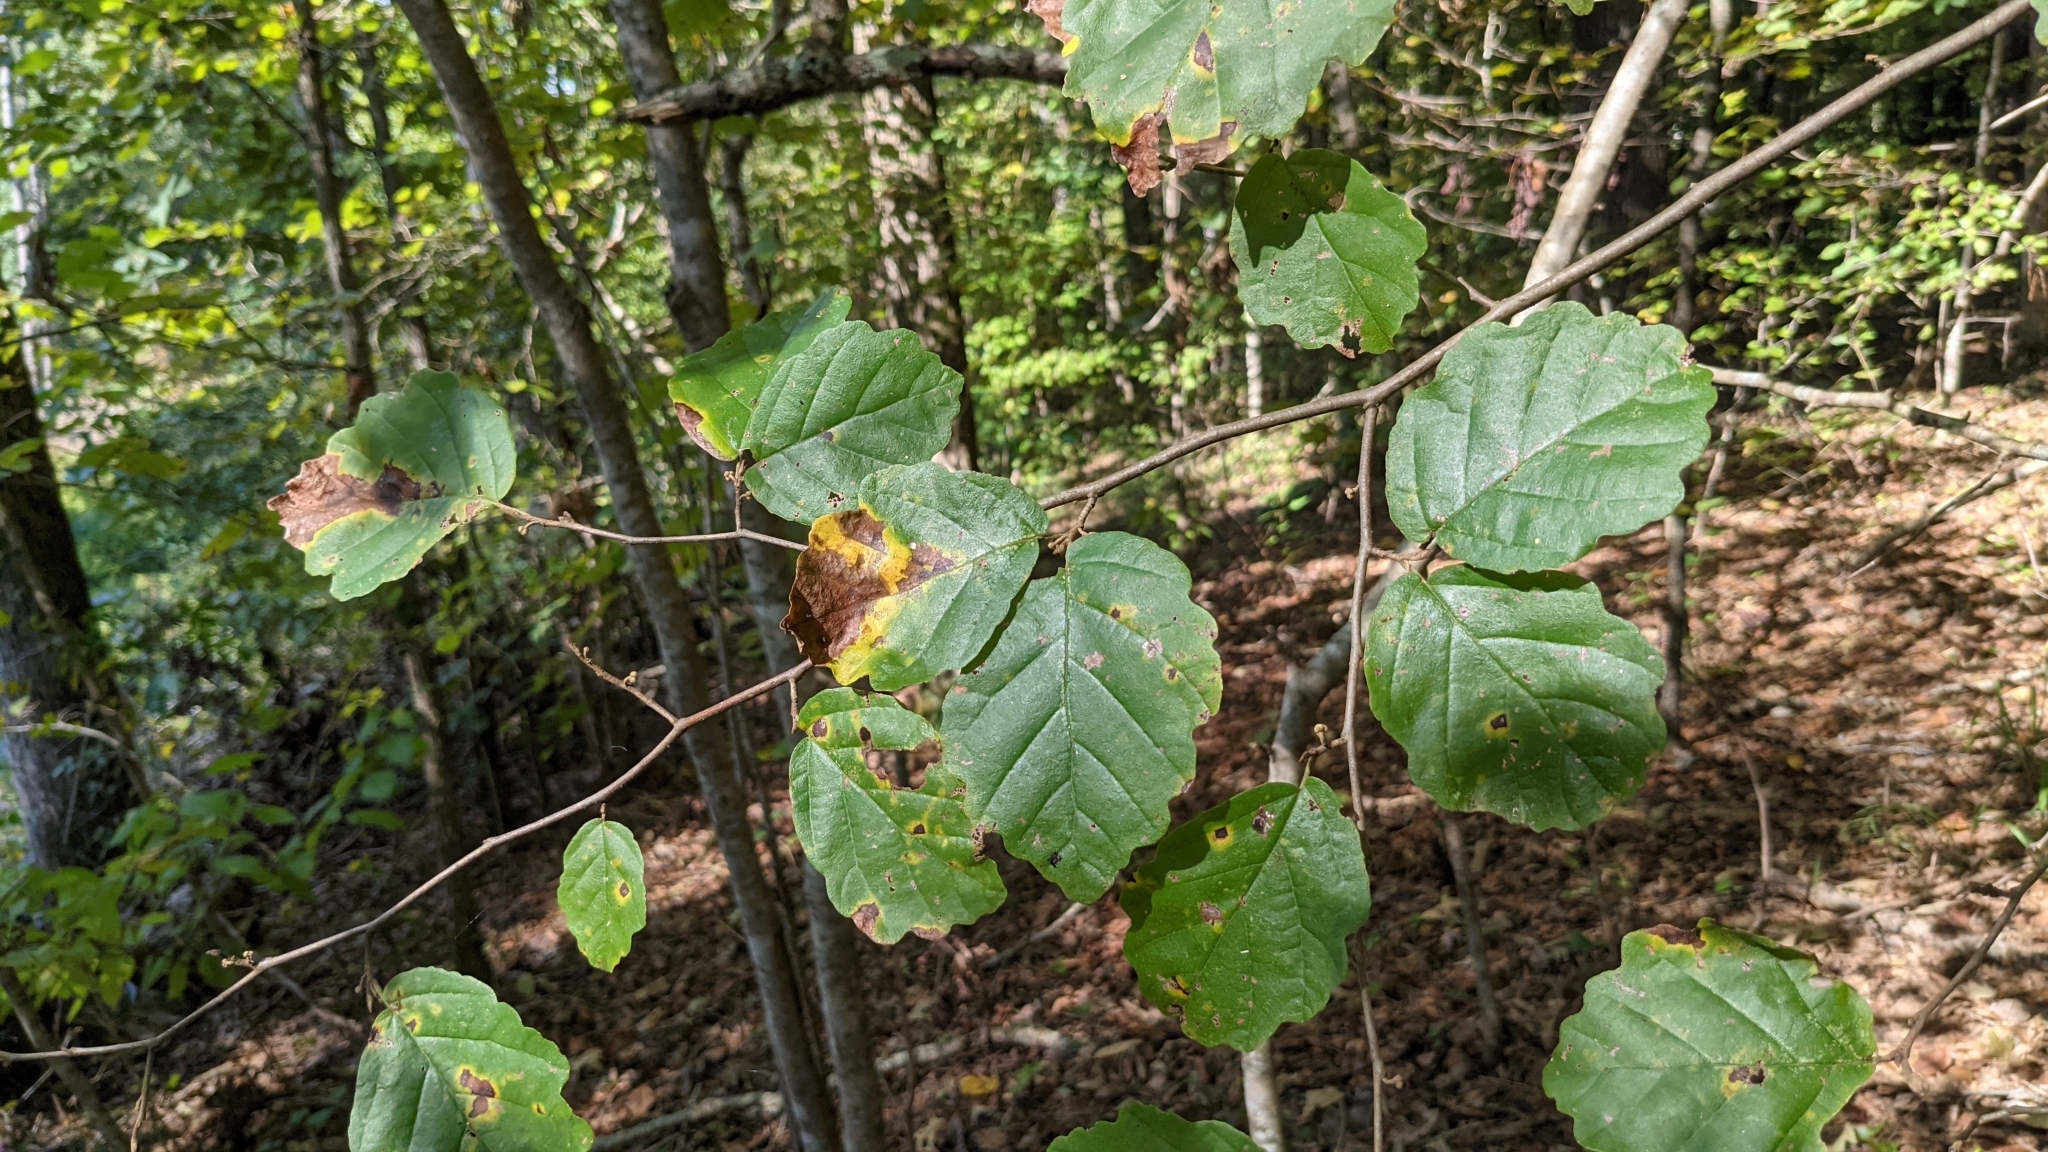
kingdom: Plantae
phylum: Tracheophyta
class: Magnoliopsida
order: Saxifragales
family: Hamamelidaceae
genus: Hamamelis
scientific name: Hamamelis virginiana
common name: Witch-hazel
